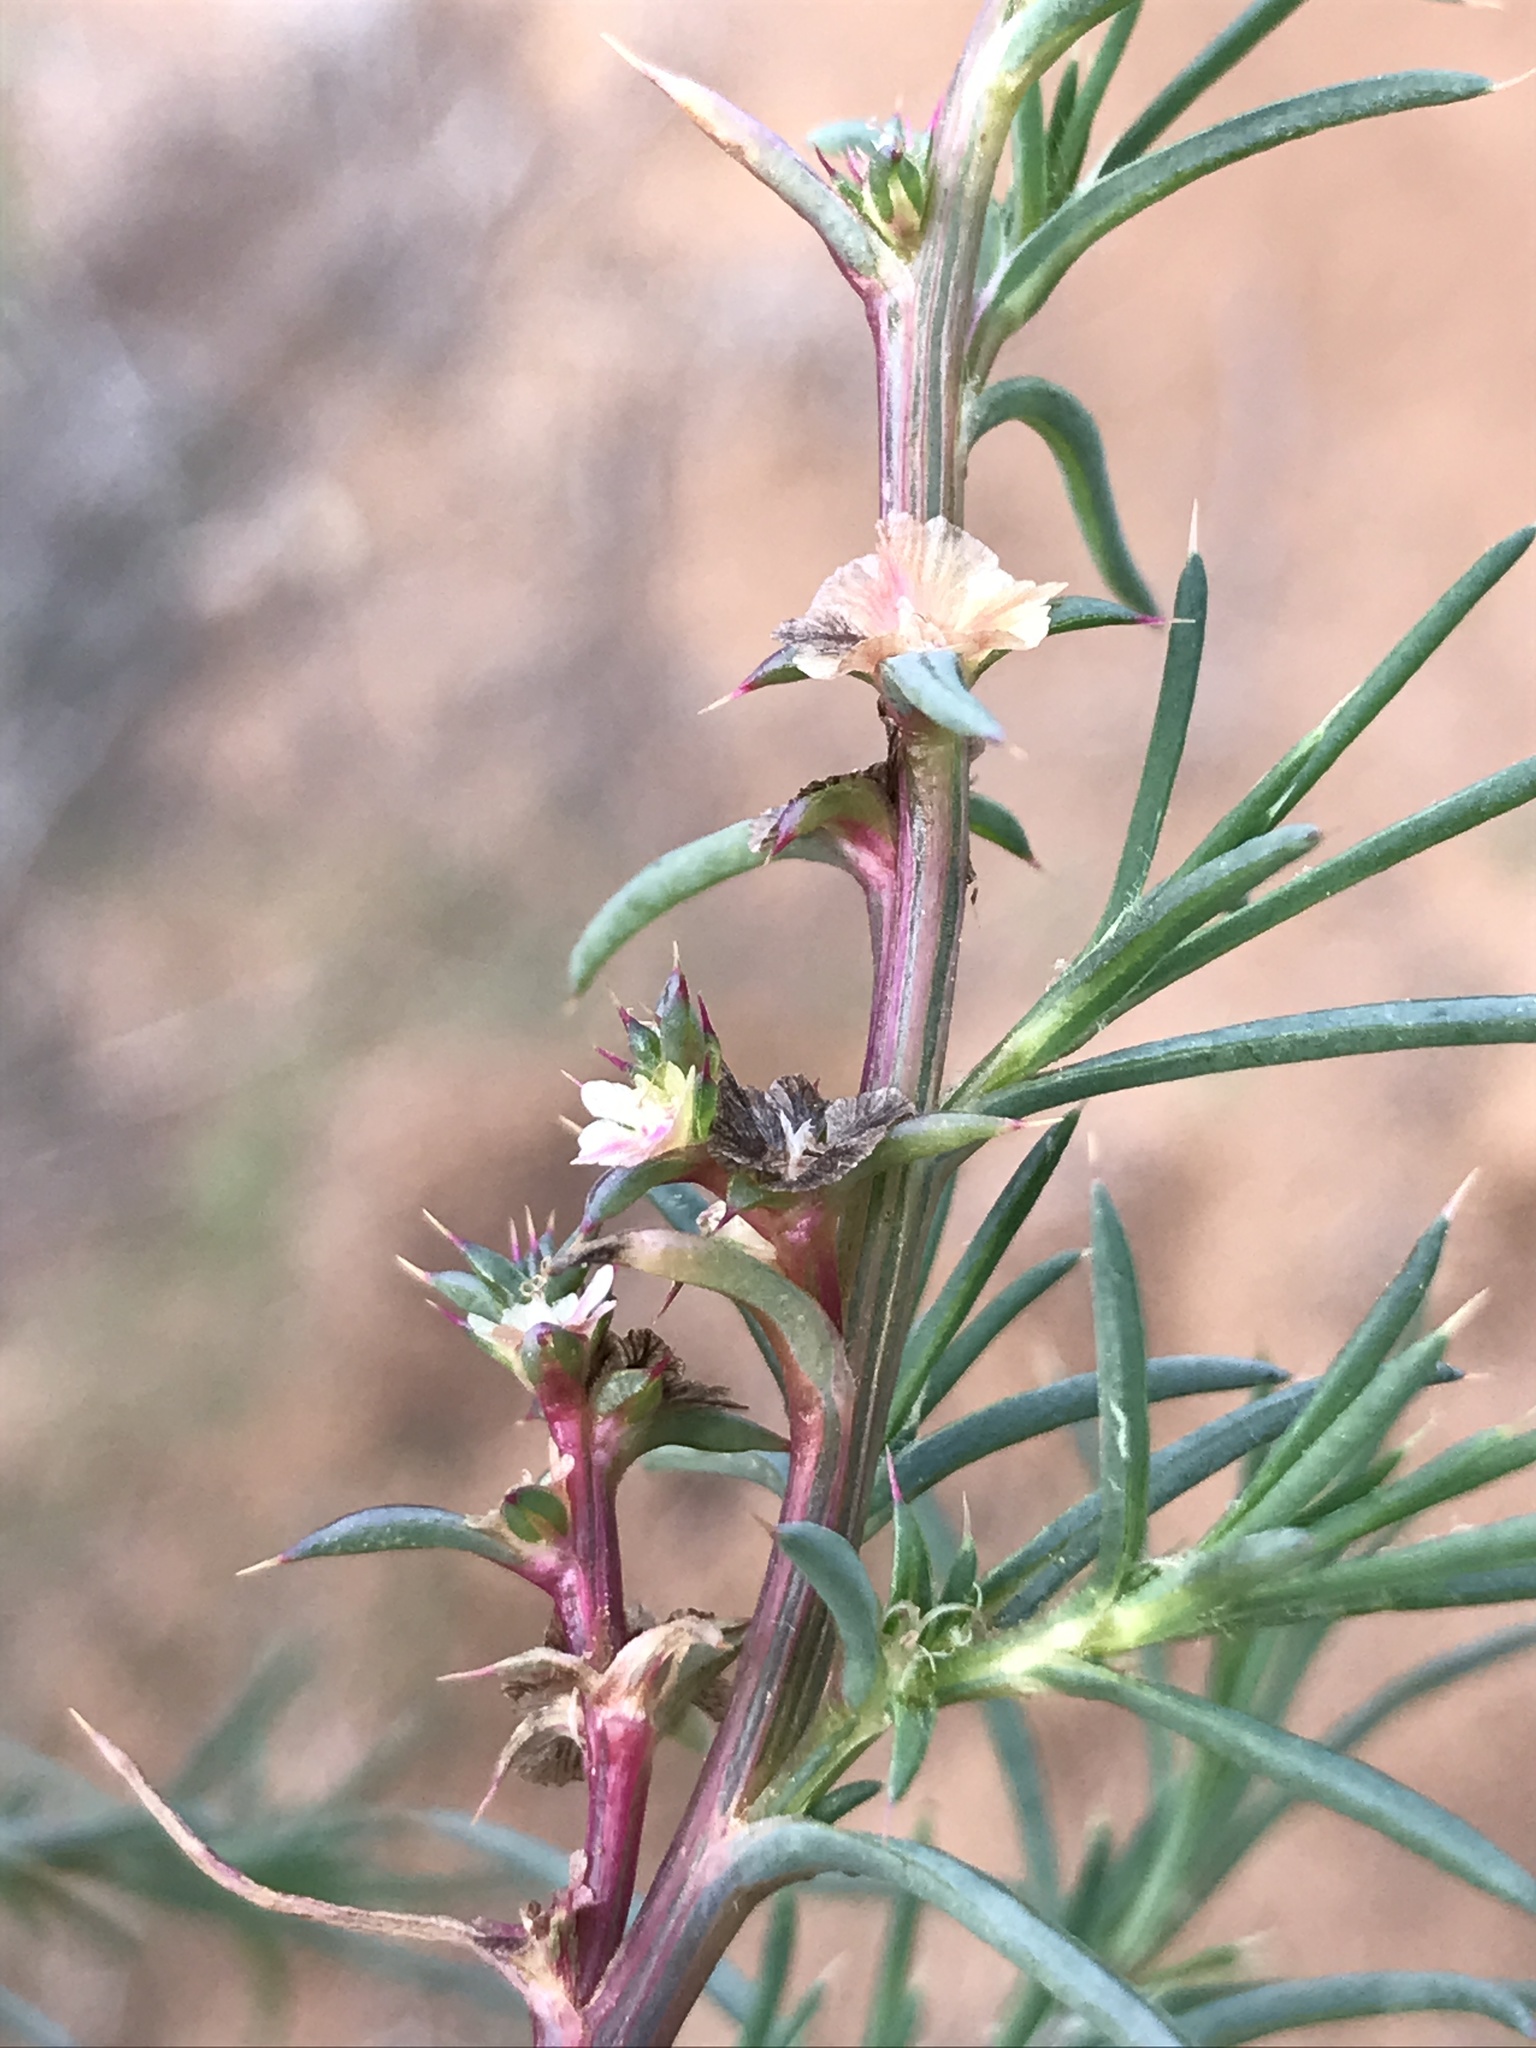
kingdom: Plantae
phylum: Tracheophyta
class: Magnoliopsida
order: Caryophyllales
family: Amaranthaceae
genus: Salsola
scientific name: Salsola australis
